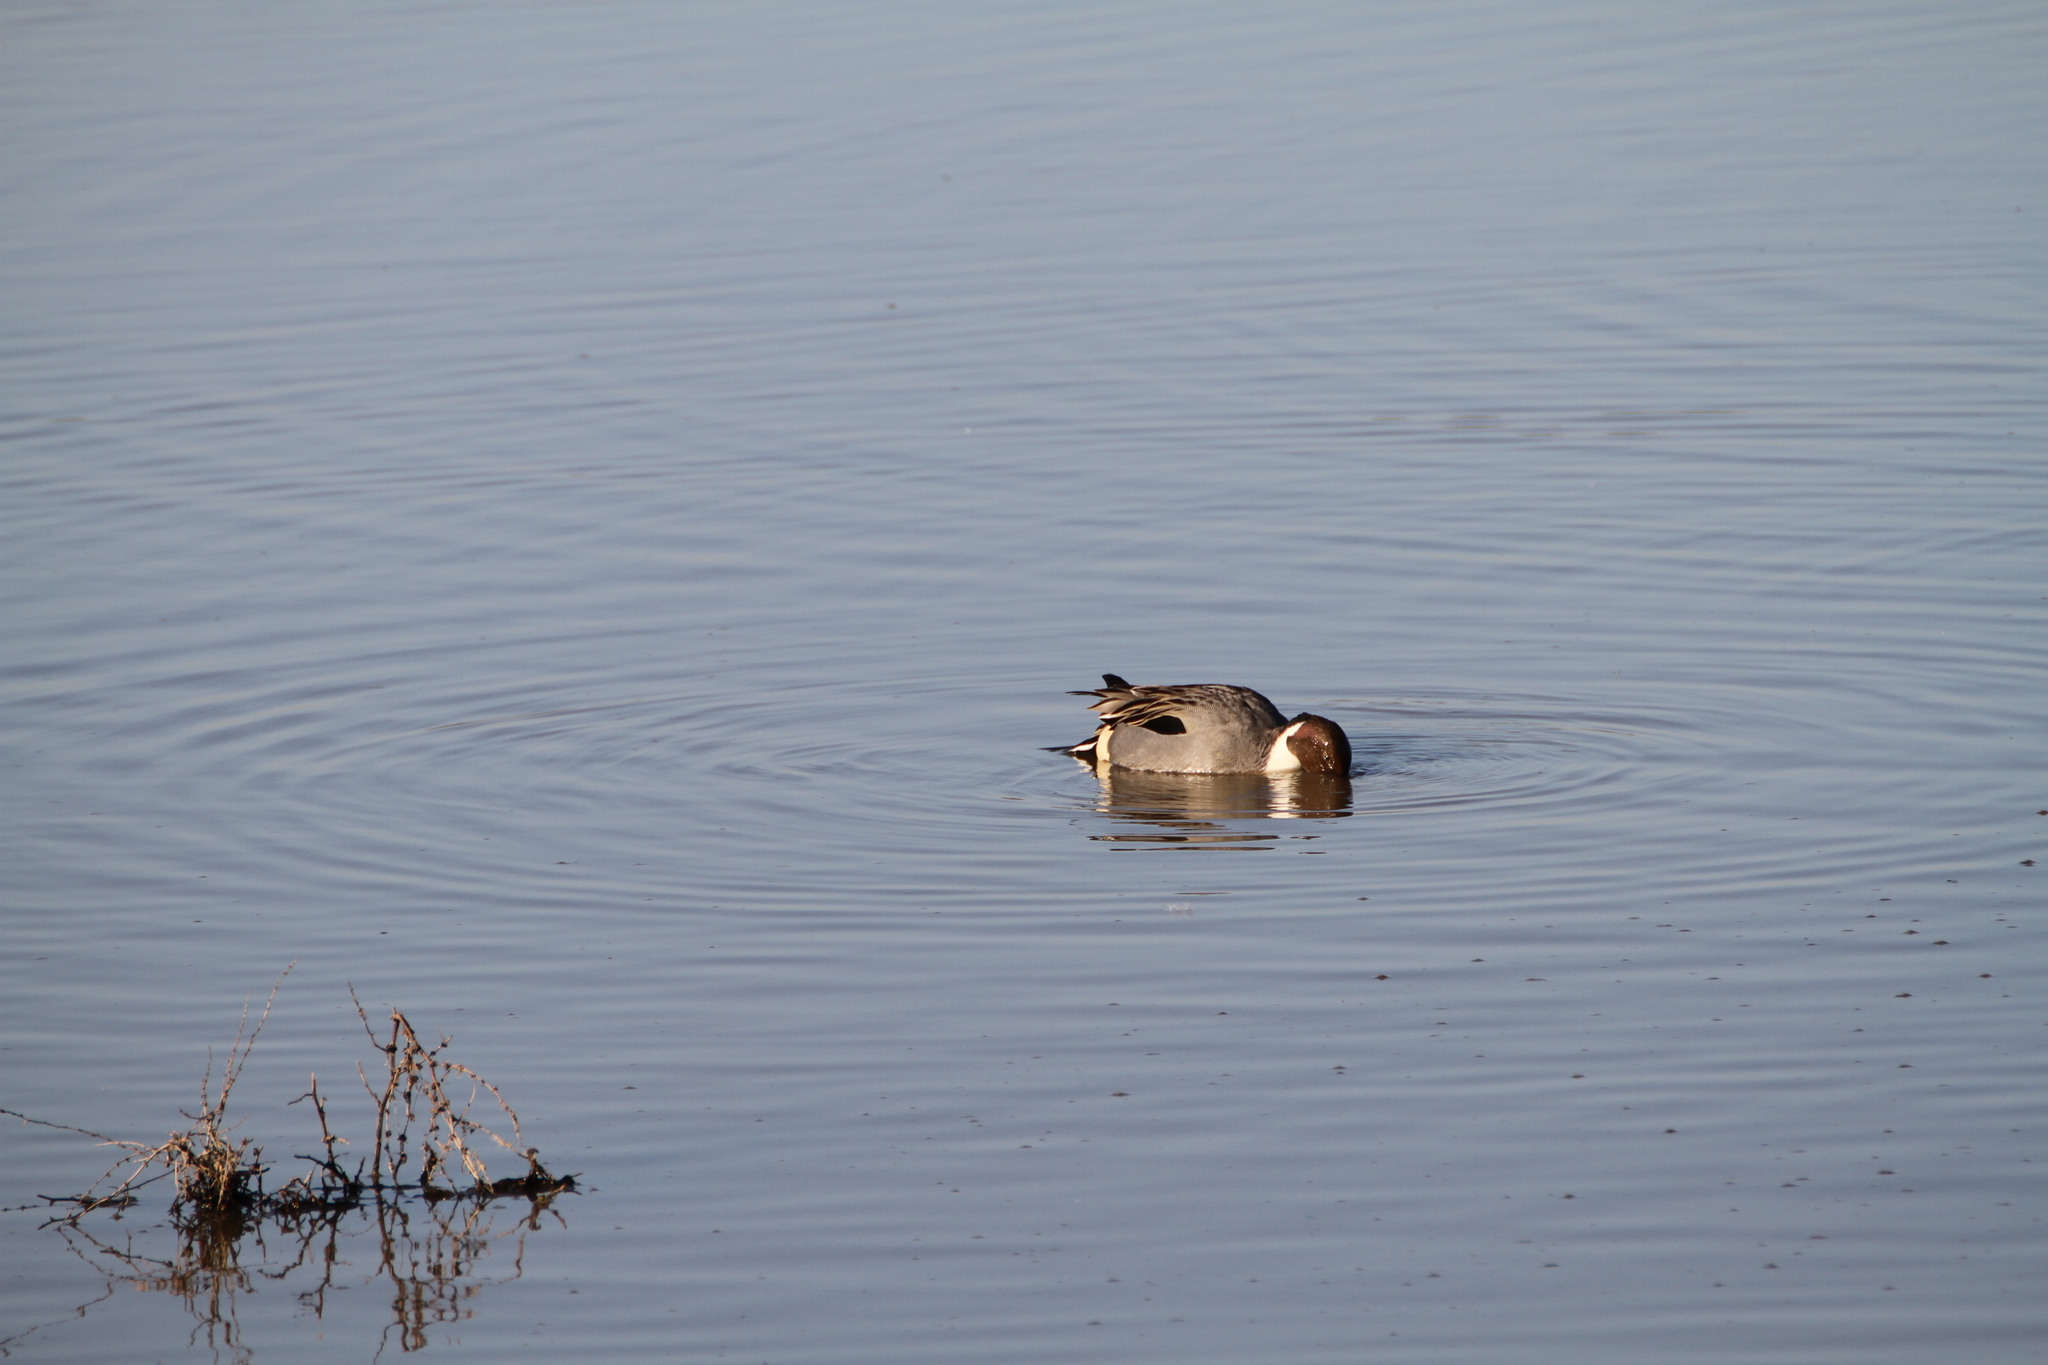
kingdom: Animalia
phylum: Chordata
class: Aves
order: Anseriformes
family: Anatidae
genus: Anas
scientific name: Anas acuta
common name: Northern pintail
